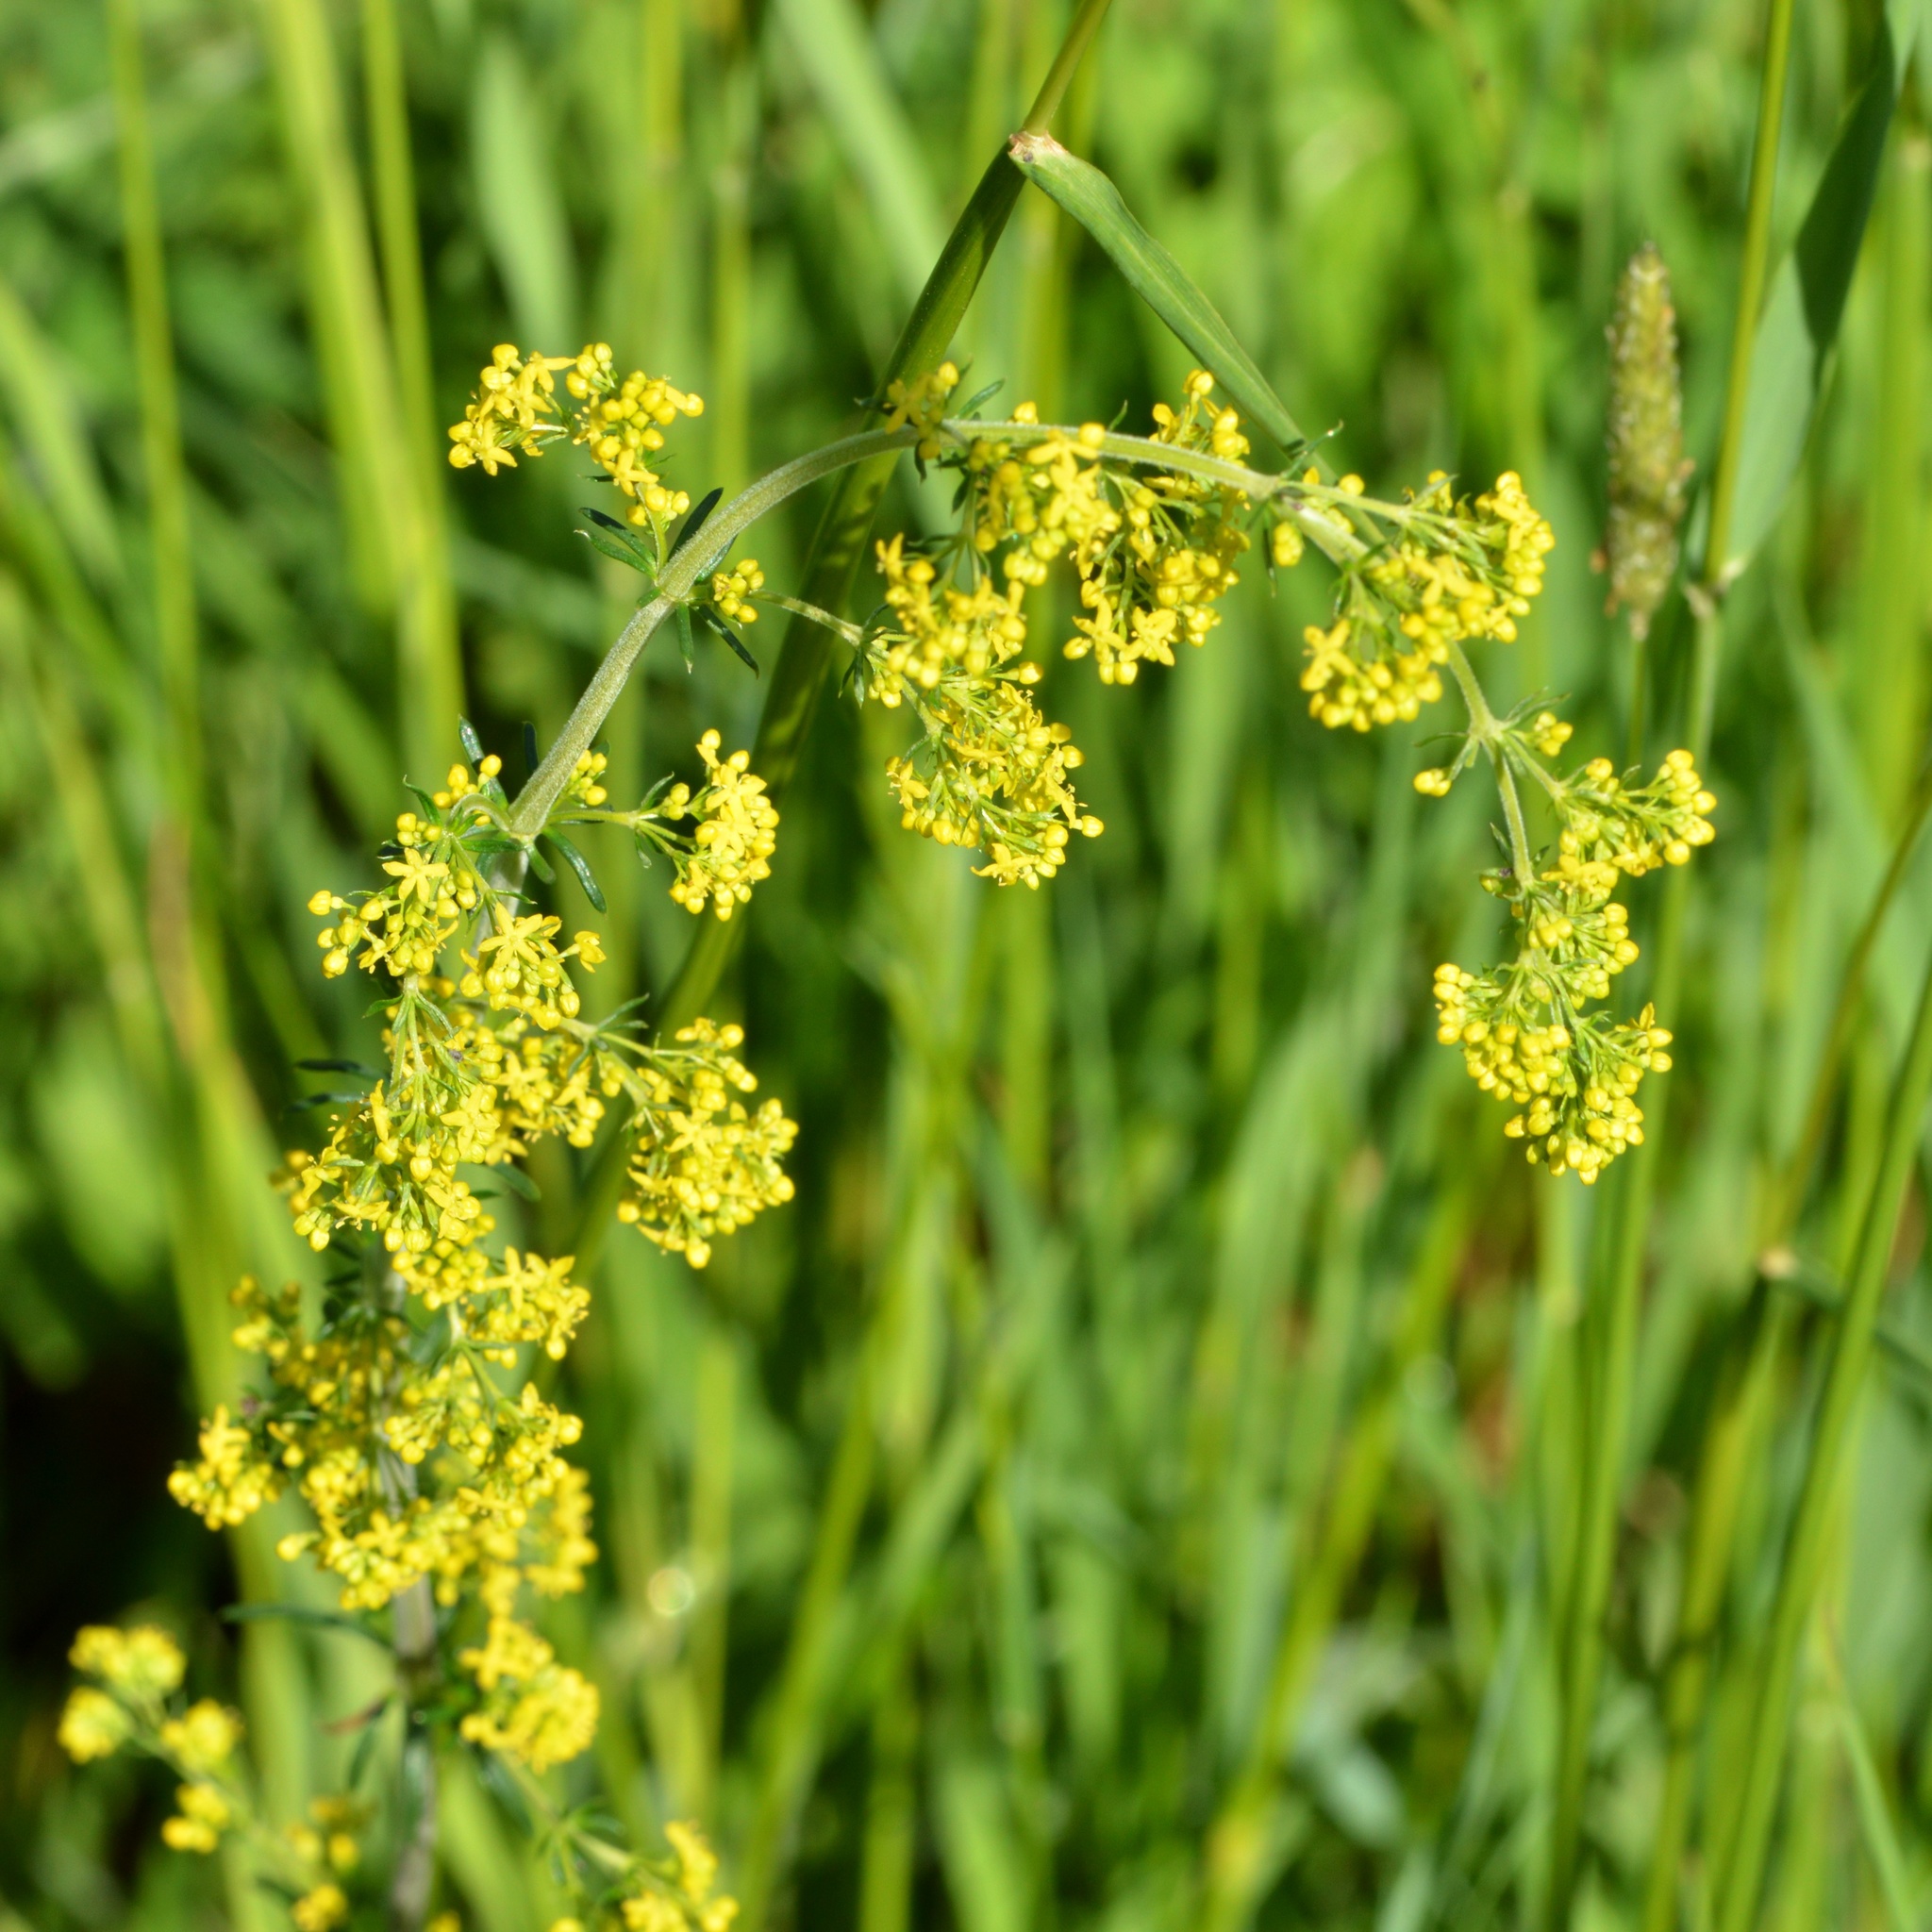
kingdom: Plantae
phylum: Tracheophyta
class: Magnoliopsida
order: Gentianales
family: Rubiaceae
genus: Galium
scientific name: Galium verum
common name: Lady's bedstraw
